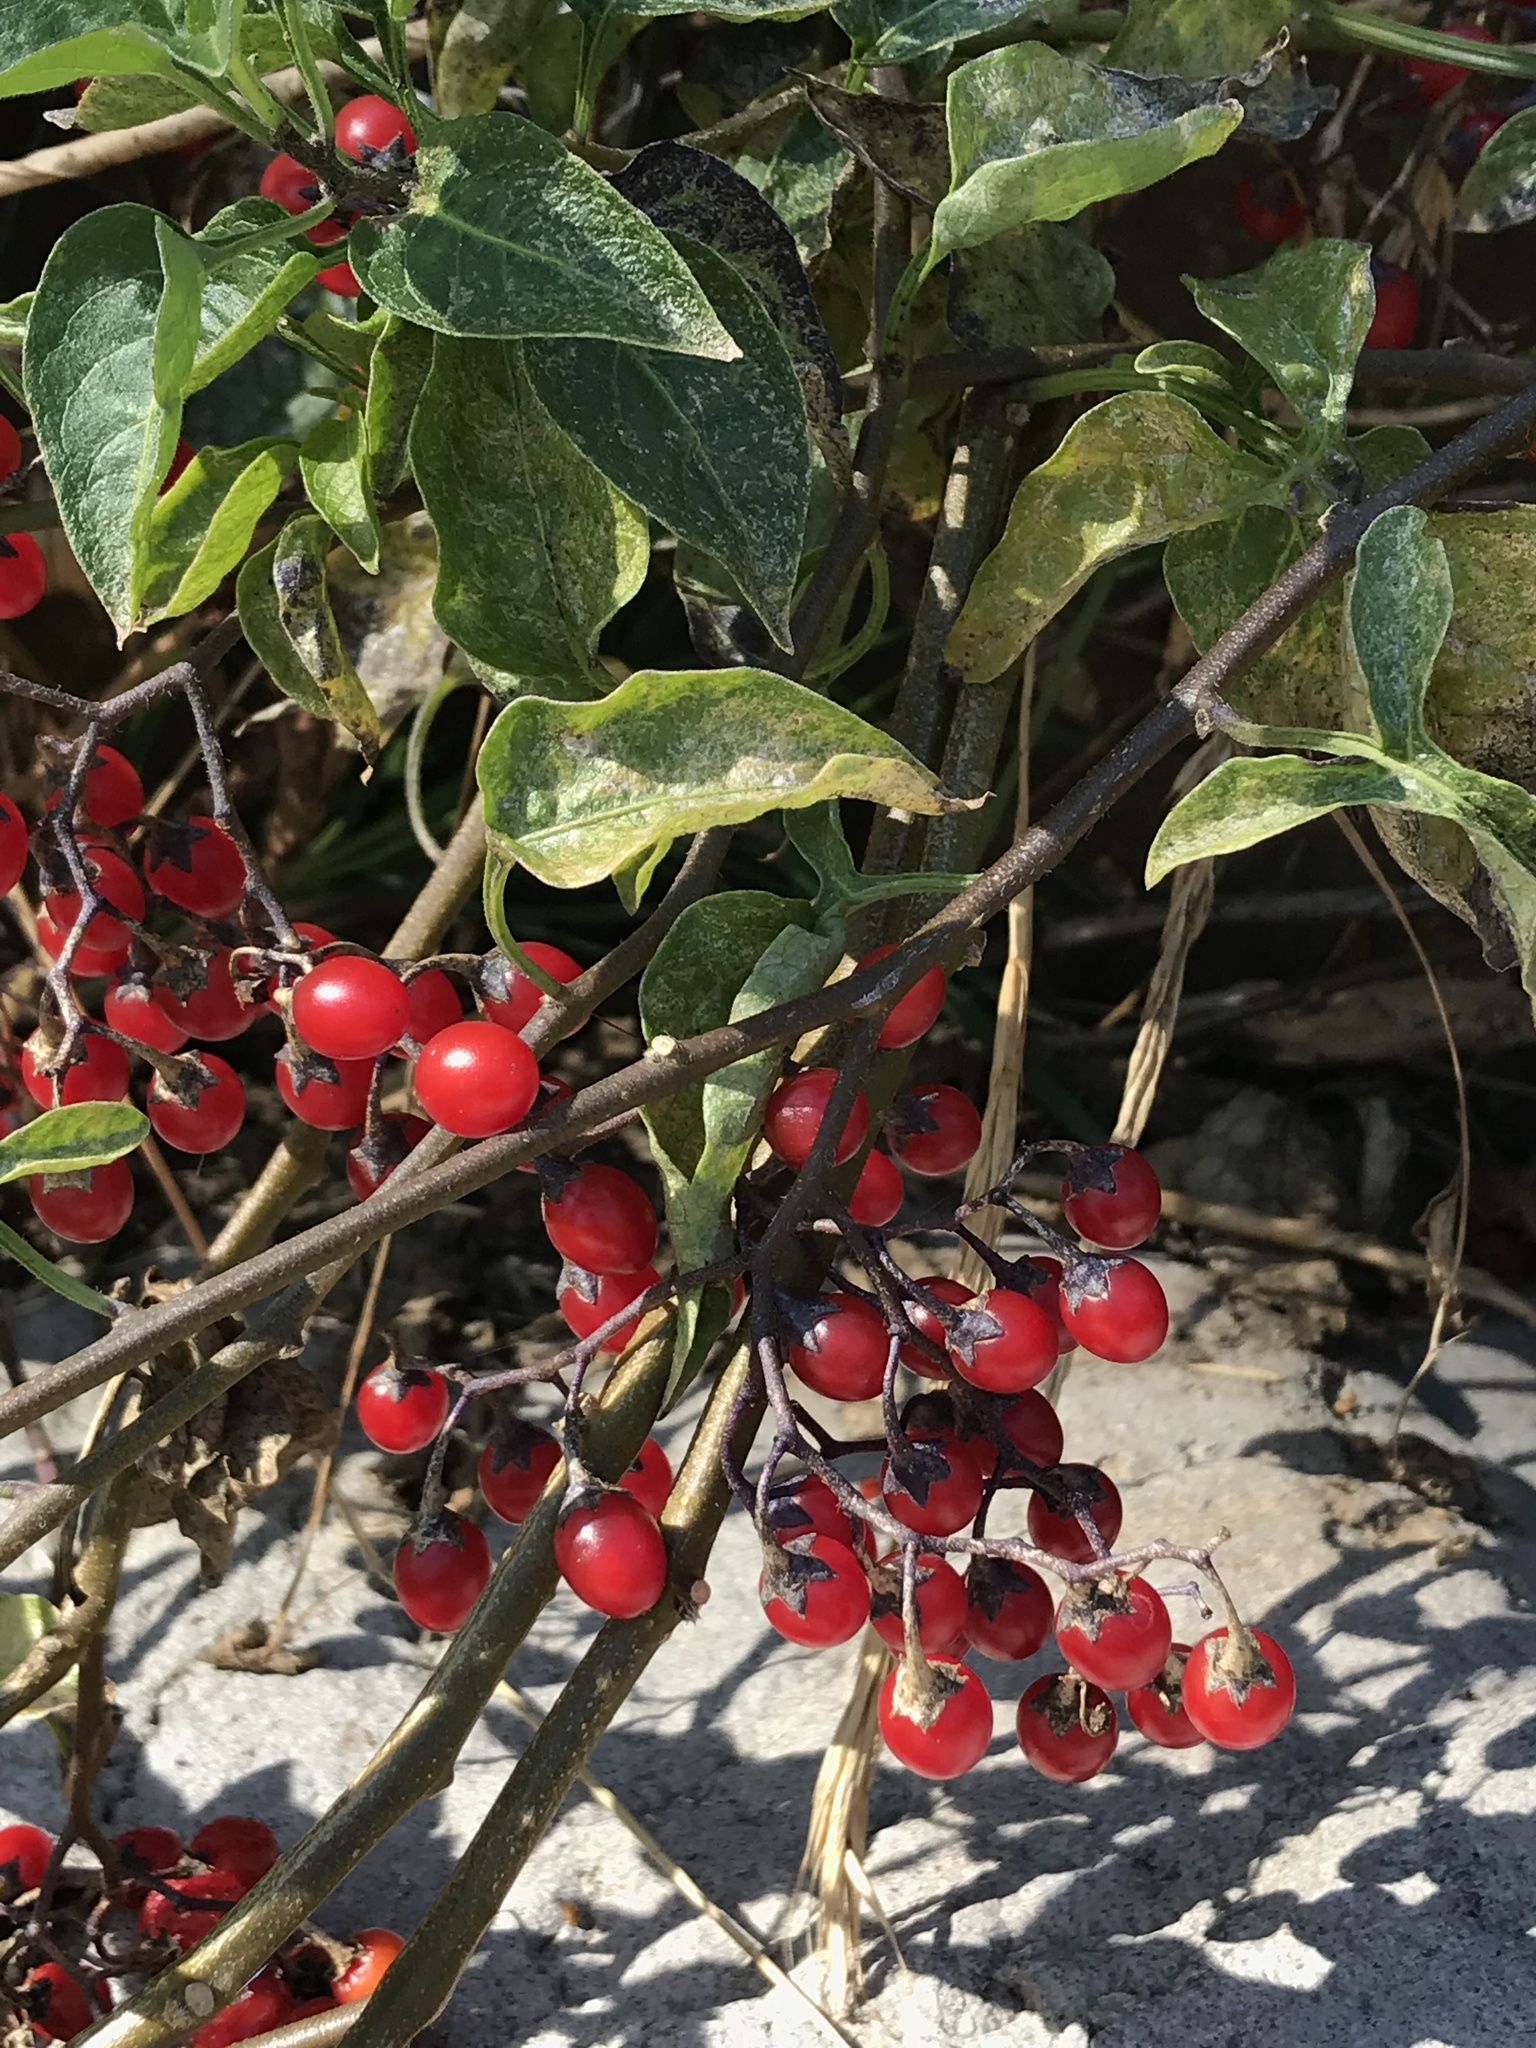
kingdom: Plantae
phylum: Tracheophyta
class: Magnoliopsida
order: Solanales
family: Solanaceae
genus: Solanum
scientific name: Solanum dulcamara
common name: Climbing nightshade
